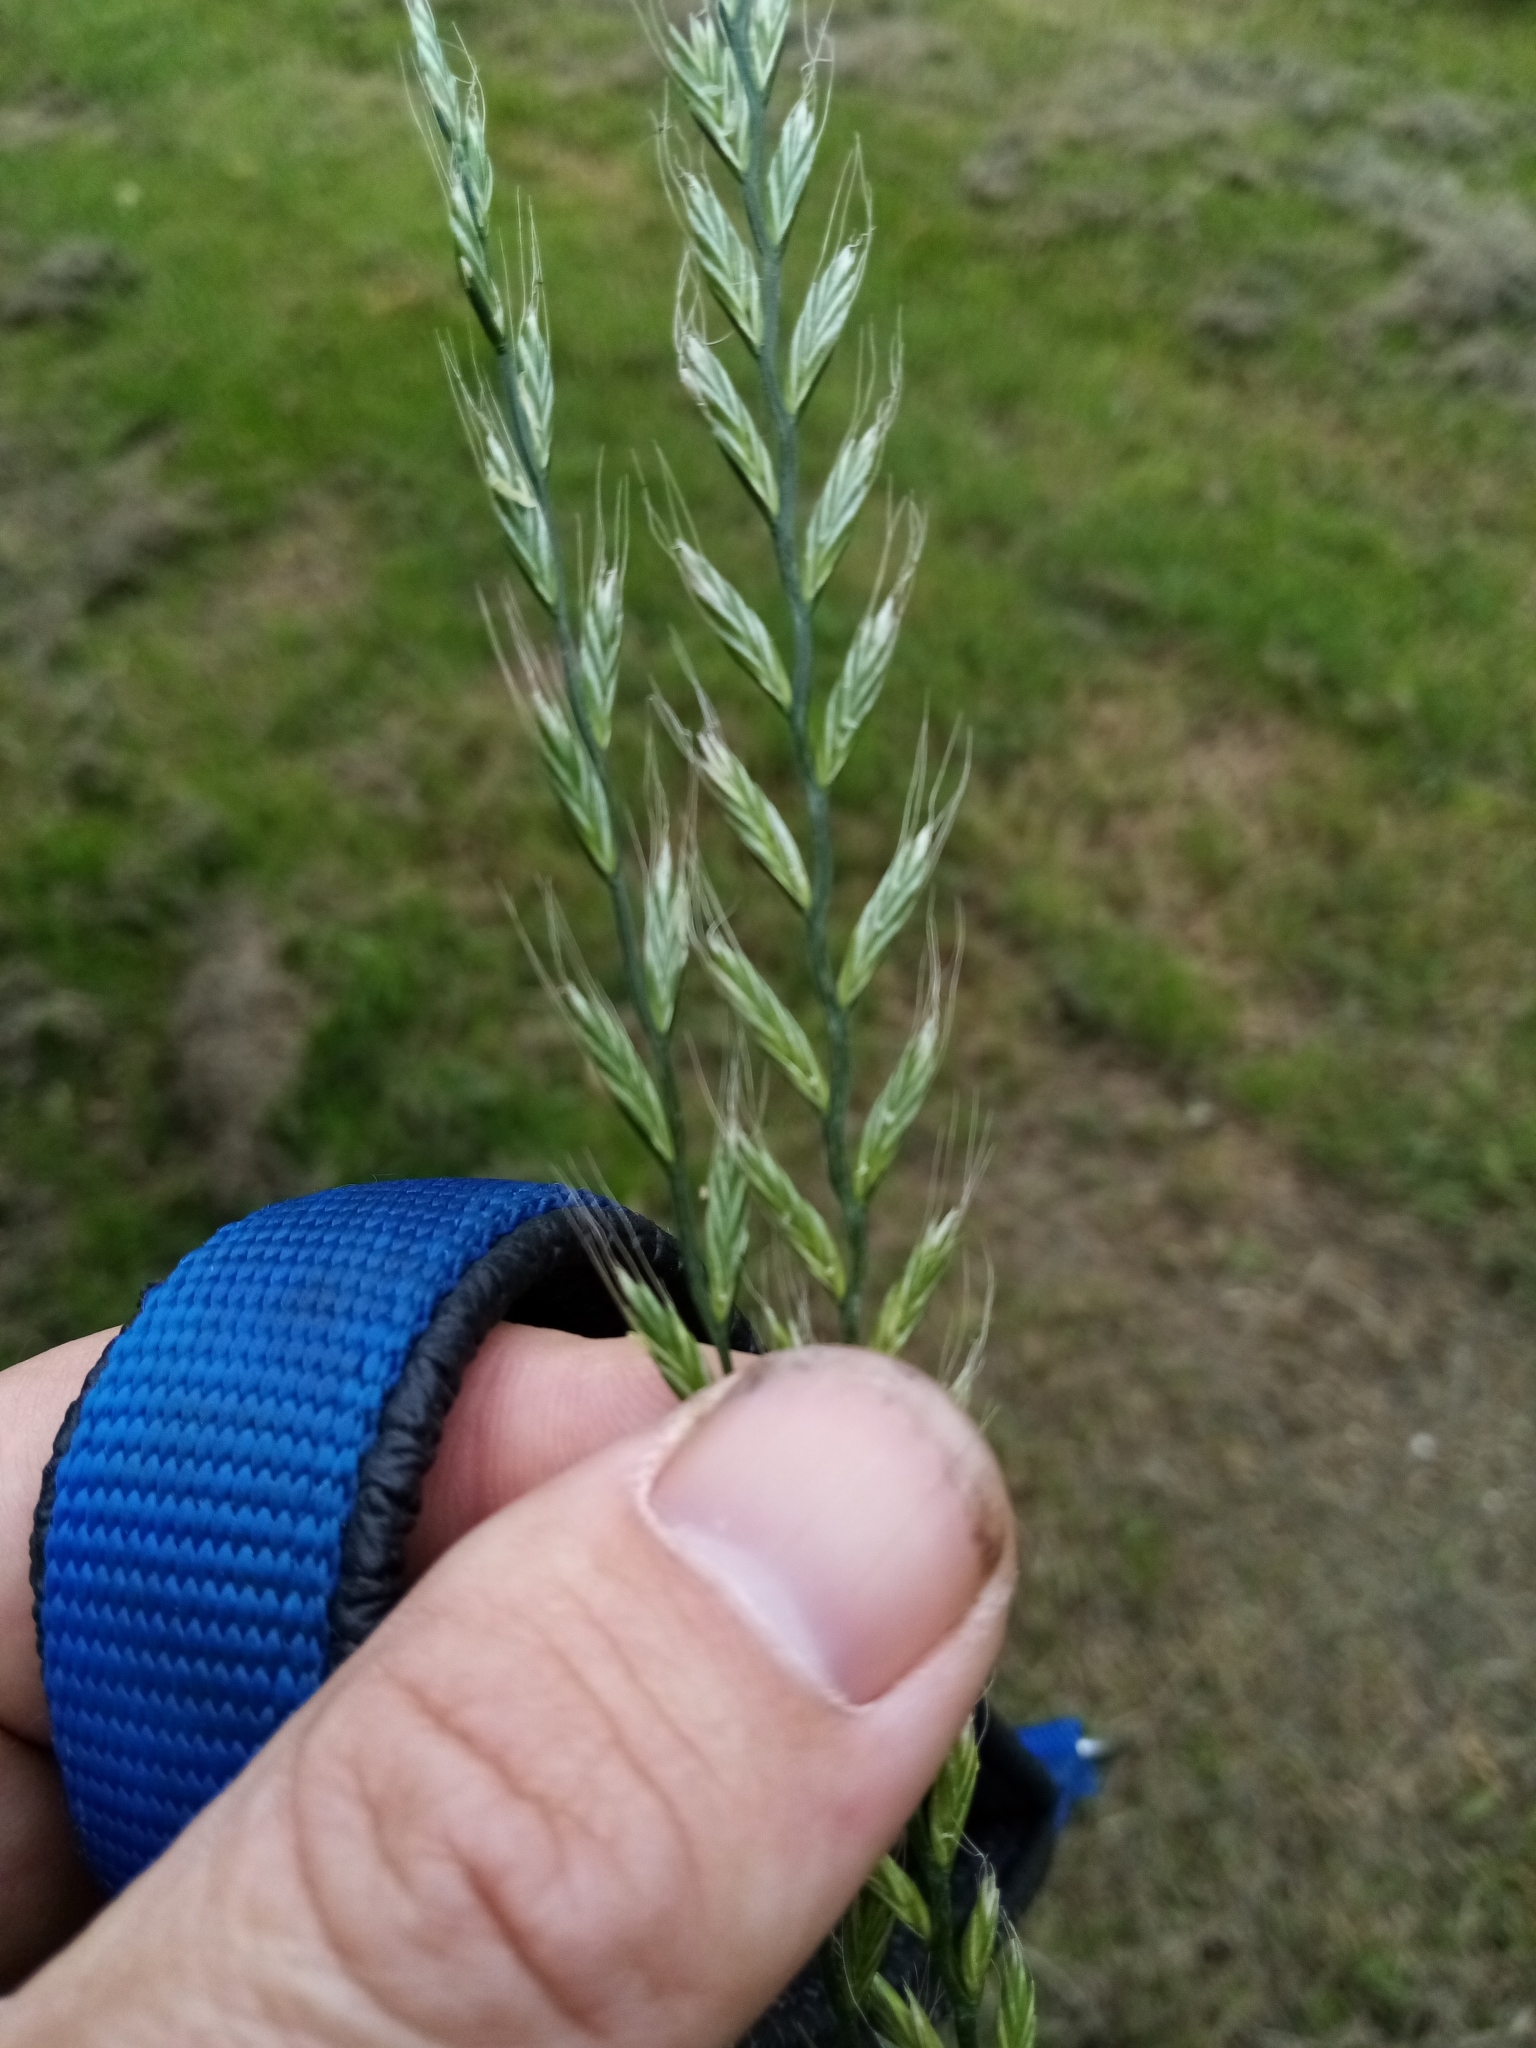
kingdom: Plantae
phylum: Tracheophyta
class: Liliopsida
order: Poales
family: Poaceae
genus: Lolium
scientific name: Lolium multiflorum
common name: Annual ryegrass
